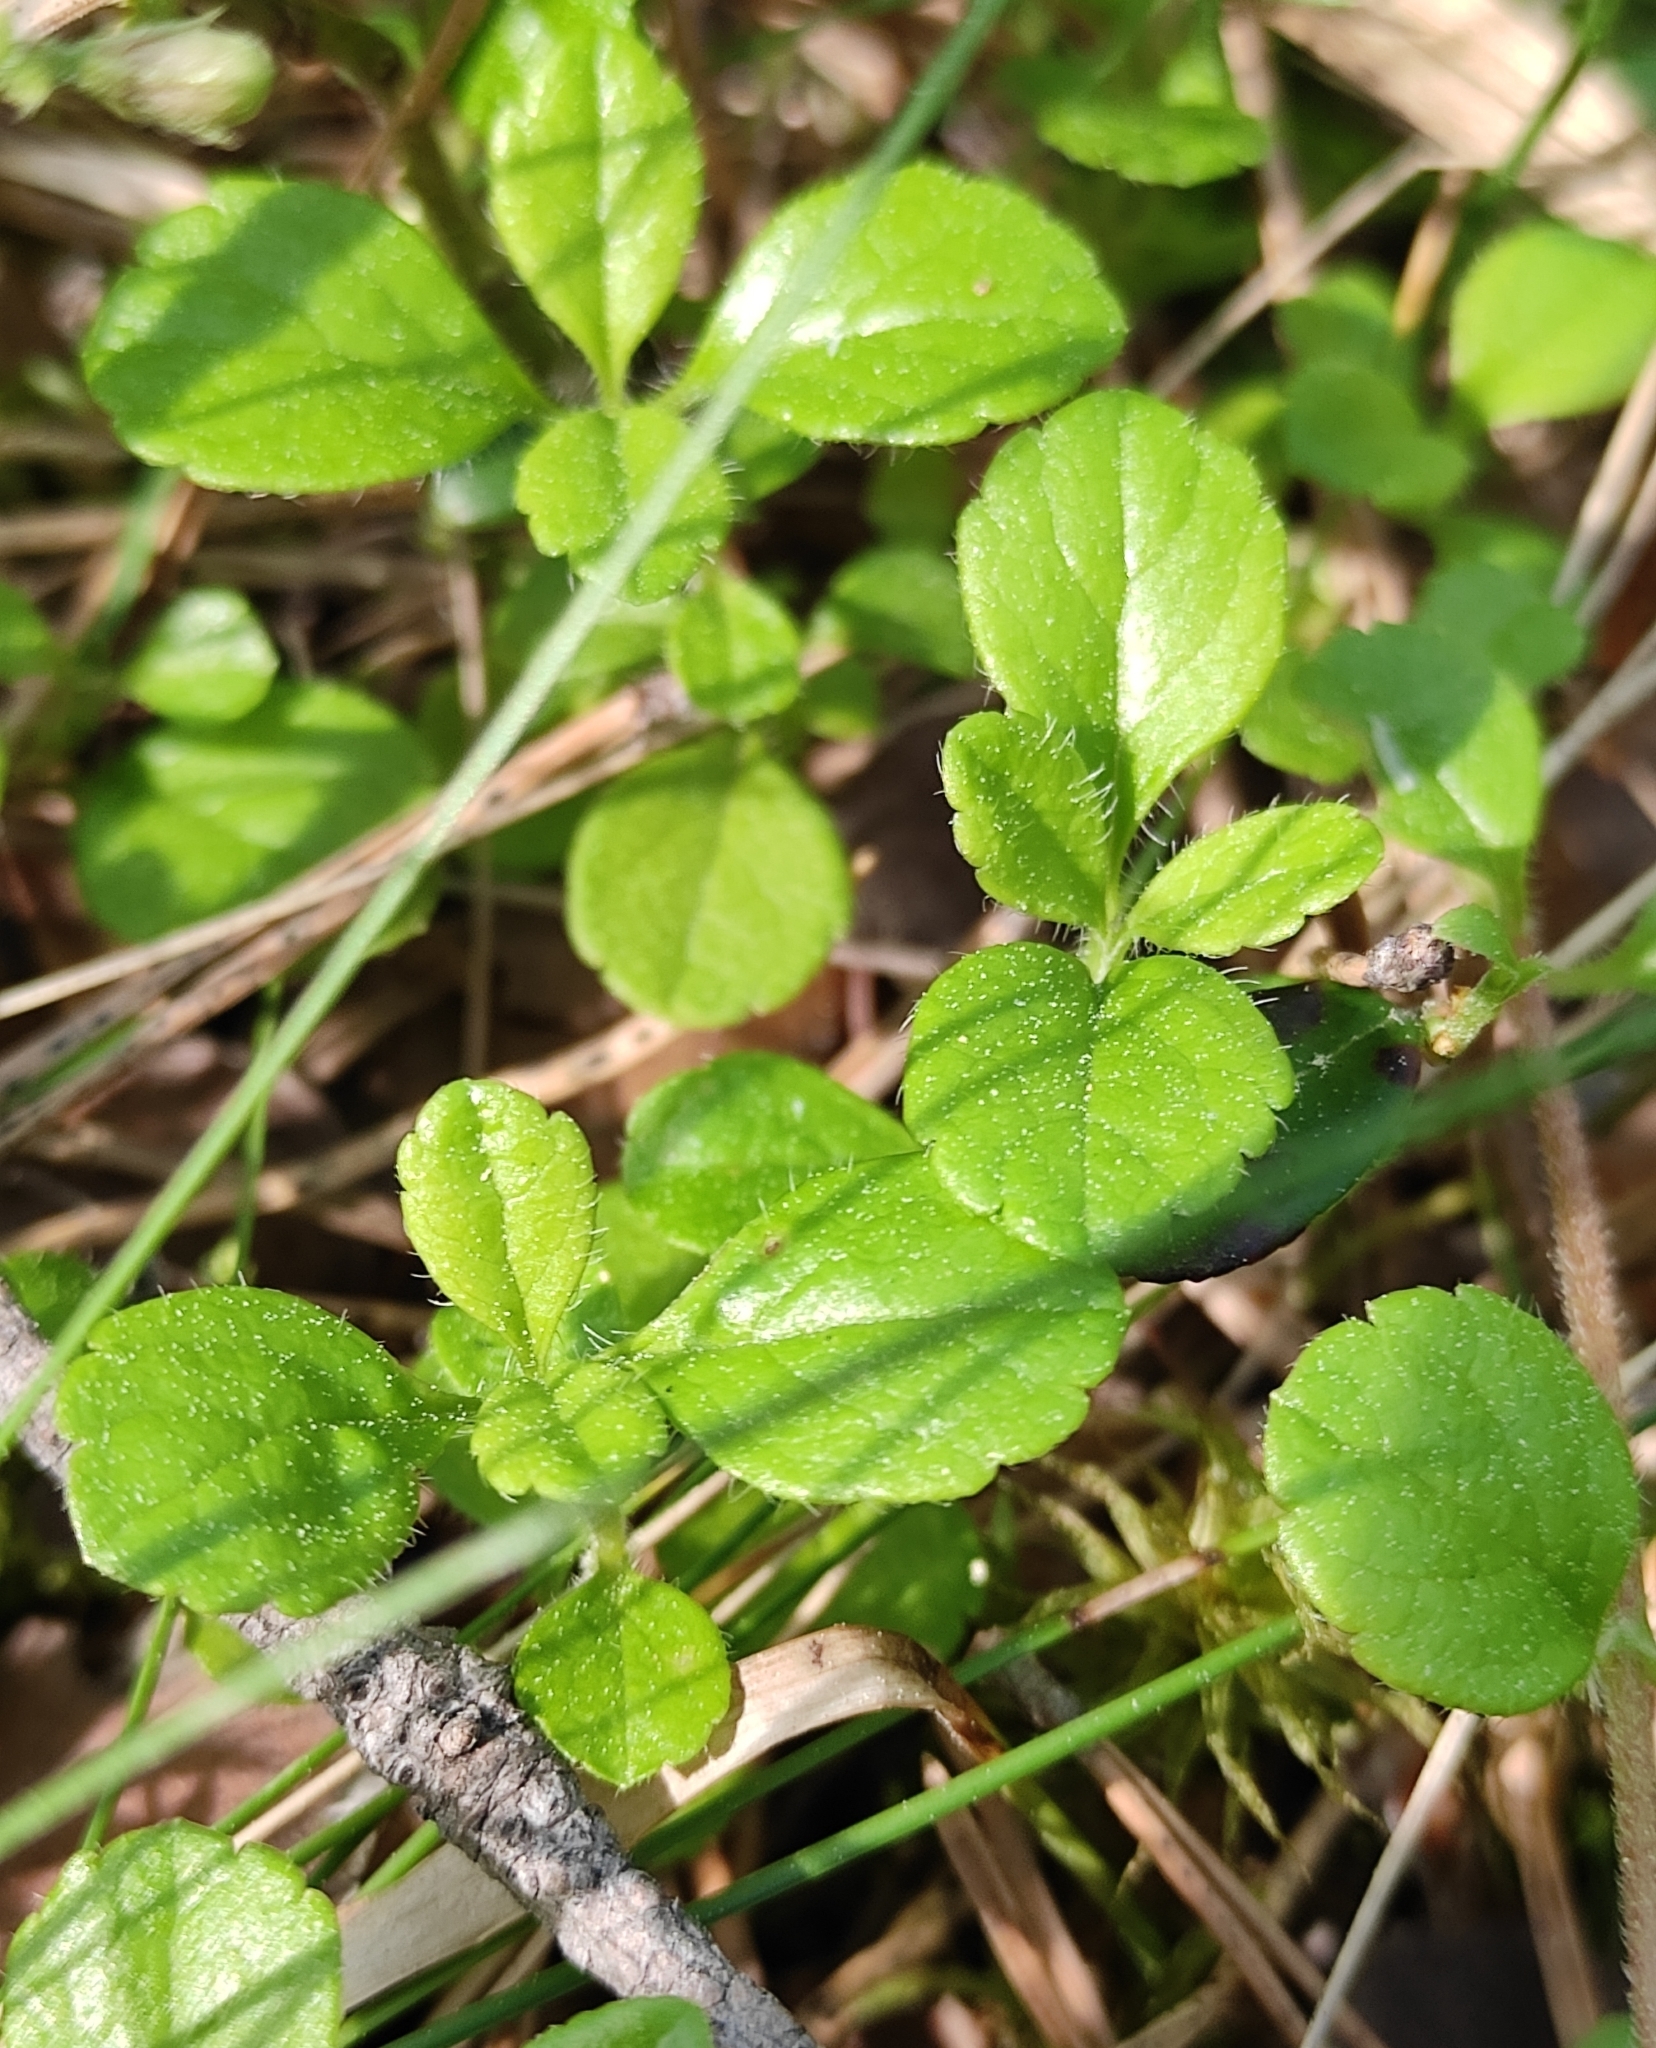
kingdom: Plantae
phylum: Tracheophyta
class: Magnoliopsida
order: Dipsacales
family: Caprifoliaceae
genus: Linnaea
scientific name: Linnaea borealis
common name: Twinflower
